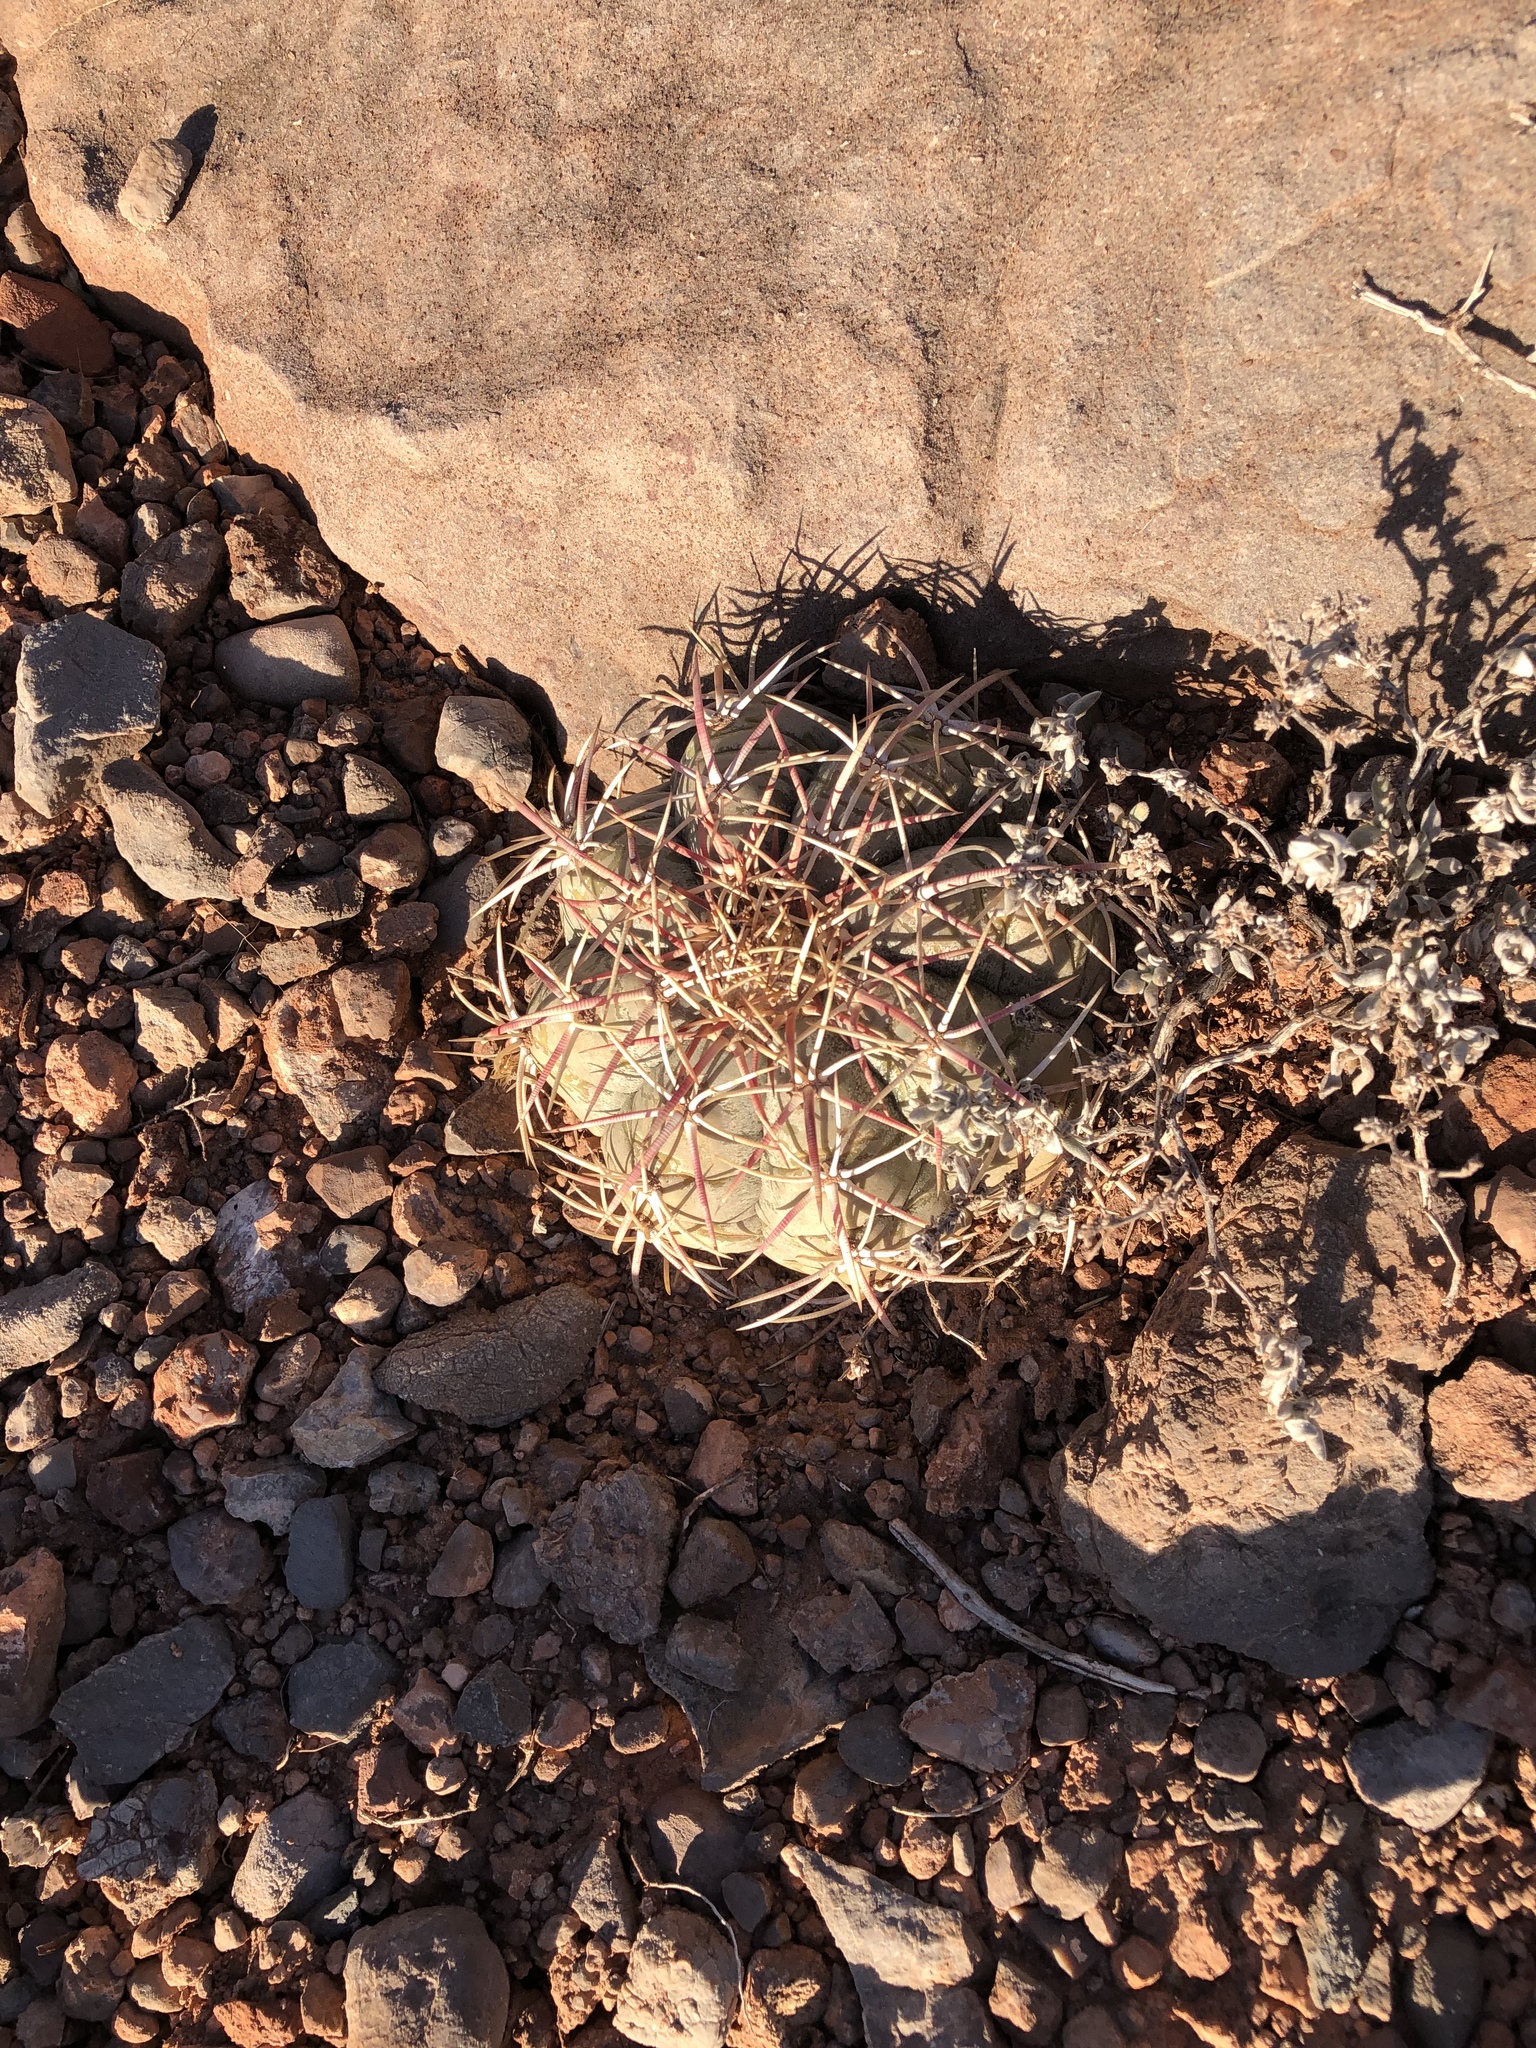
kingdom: Plantae
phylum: Tracheophyta
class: Magnoliopsida
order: Caryophyllales
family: Cactaceae
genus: Echinocactus
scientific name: Echinocactus horizonthalonius
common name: Devilshead
